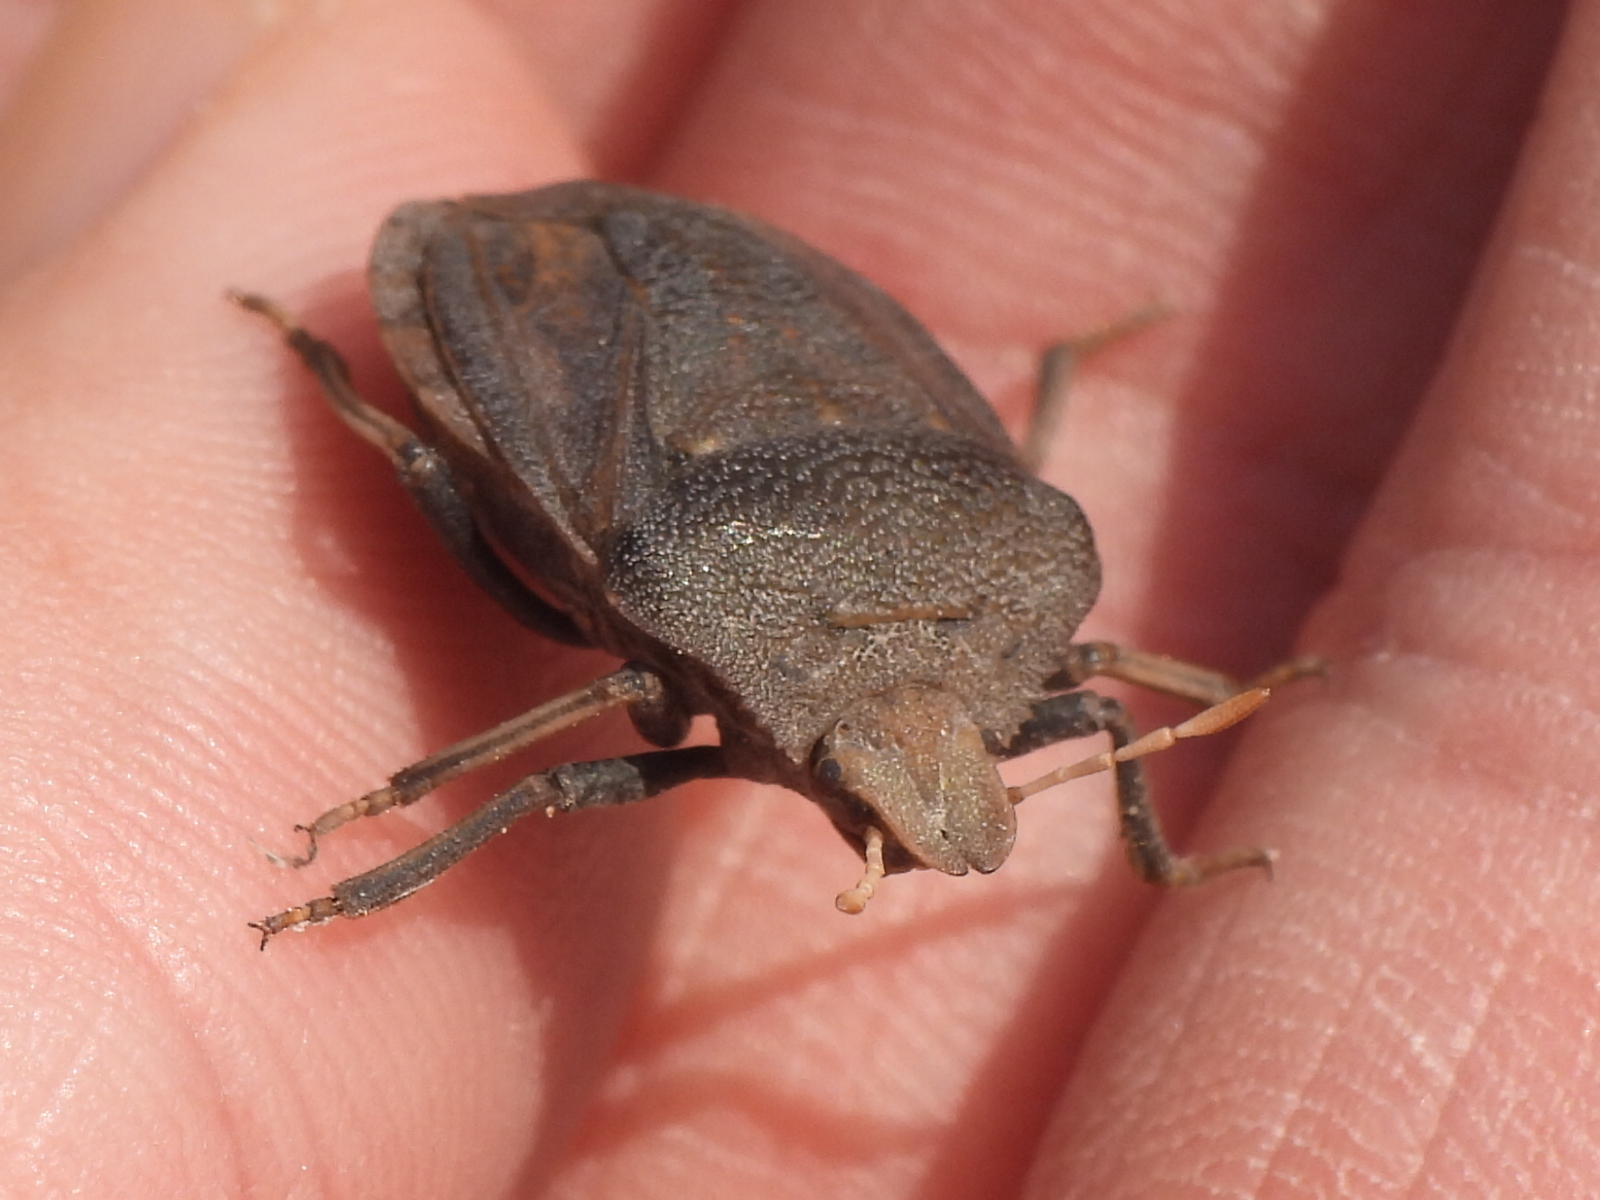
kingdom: Animalia
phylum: Arthropoda
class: Insecta
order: Hemiptera
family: Pentatomidae
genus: Phyllocephala
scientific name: Phyllocephala
